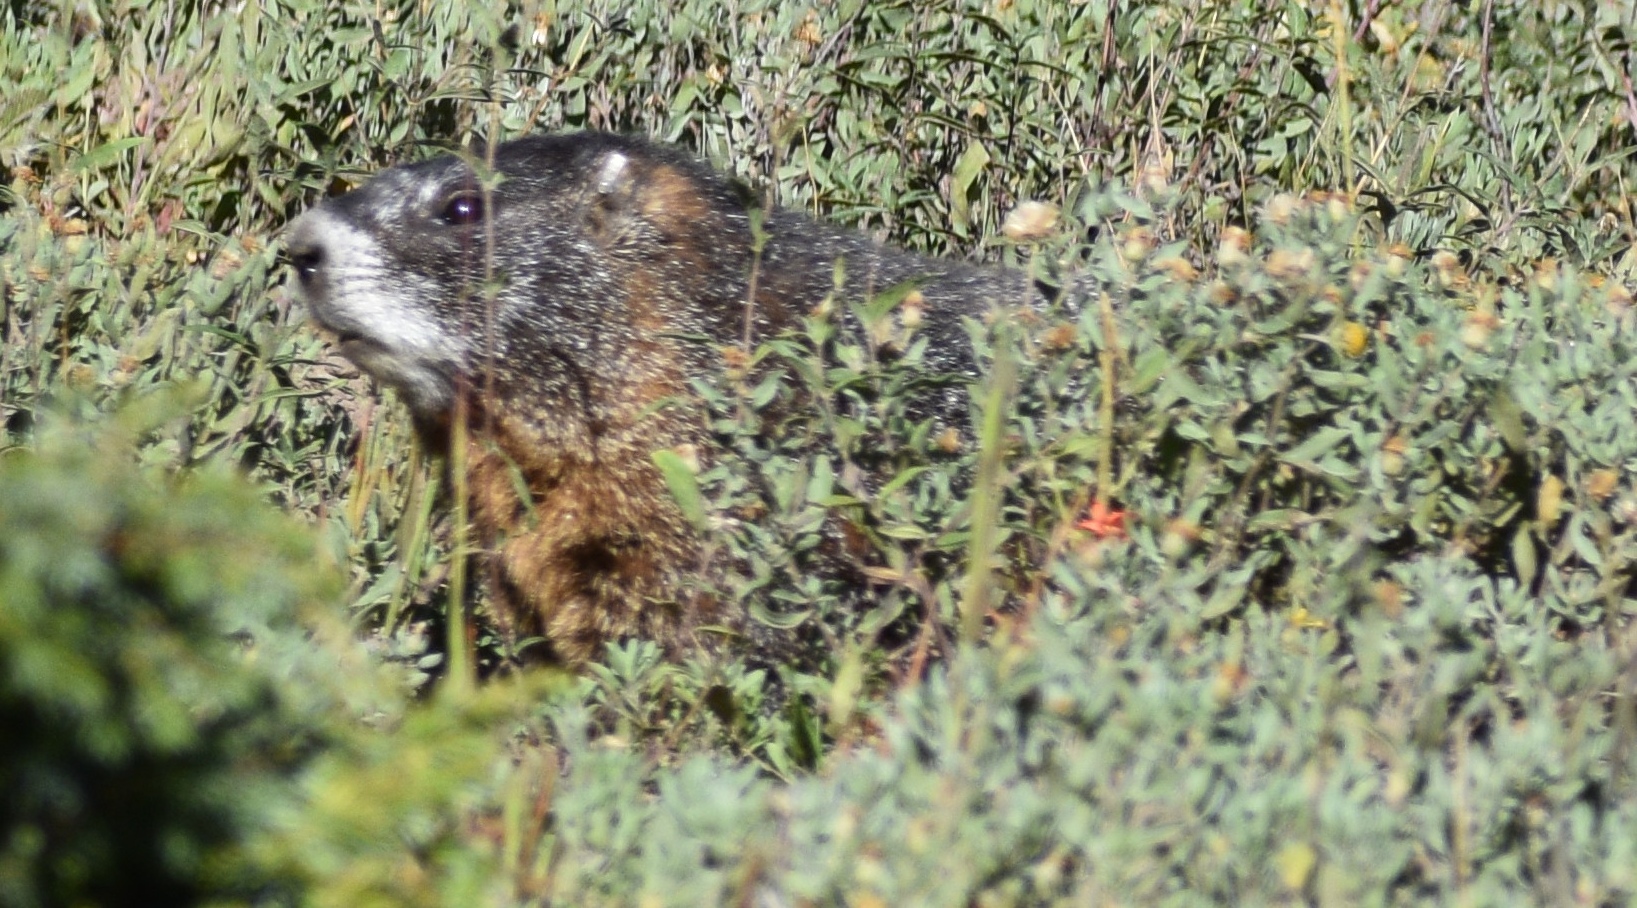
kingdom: Animalia
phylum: Chordata
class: Mammalia
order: Rodentia
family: Sciuridae
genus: Marmota
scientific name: Marmota flaviventris
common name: Yellow-bellied marmot
